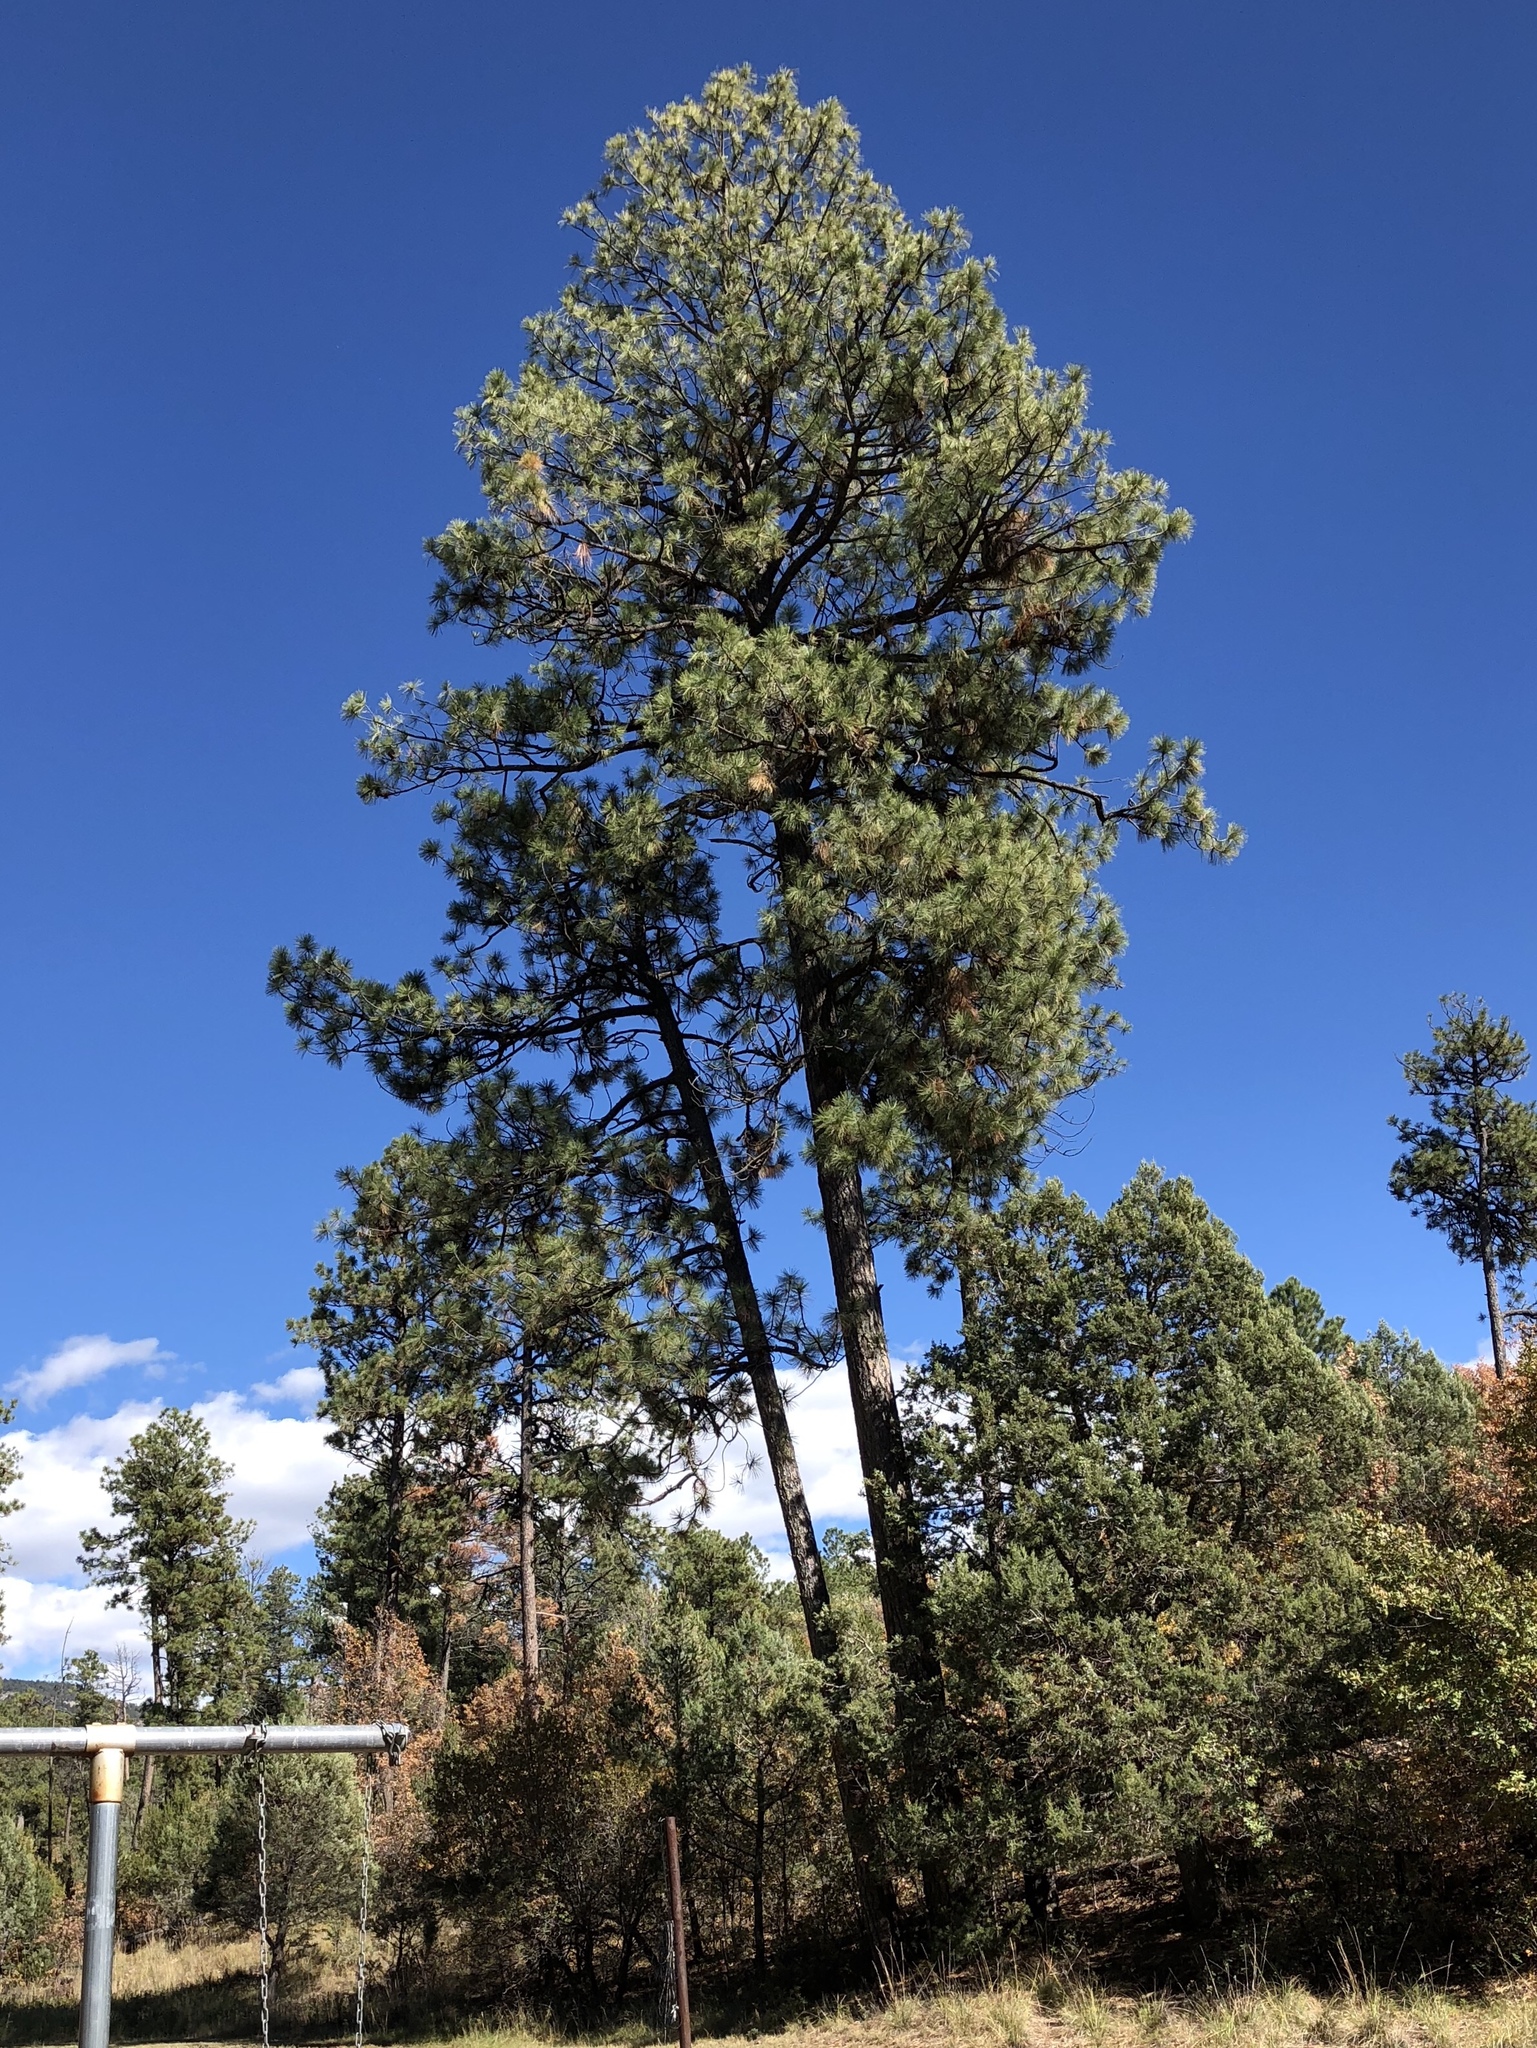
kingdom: Plantae
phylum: Tracheophyta
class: Pinopsida
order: Pinales
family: Pinaceae
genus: Pinus
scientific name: Pinus ponderosa
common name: Western yellow-pine
